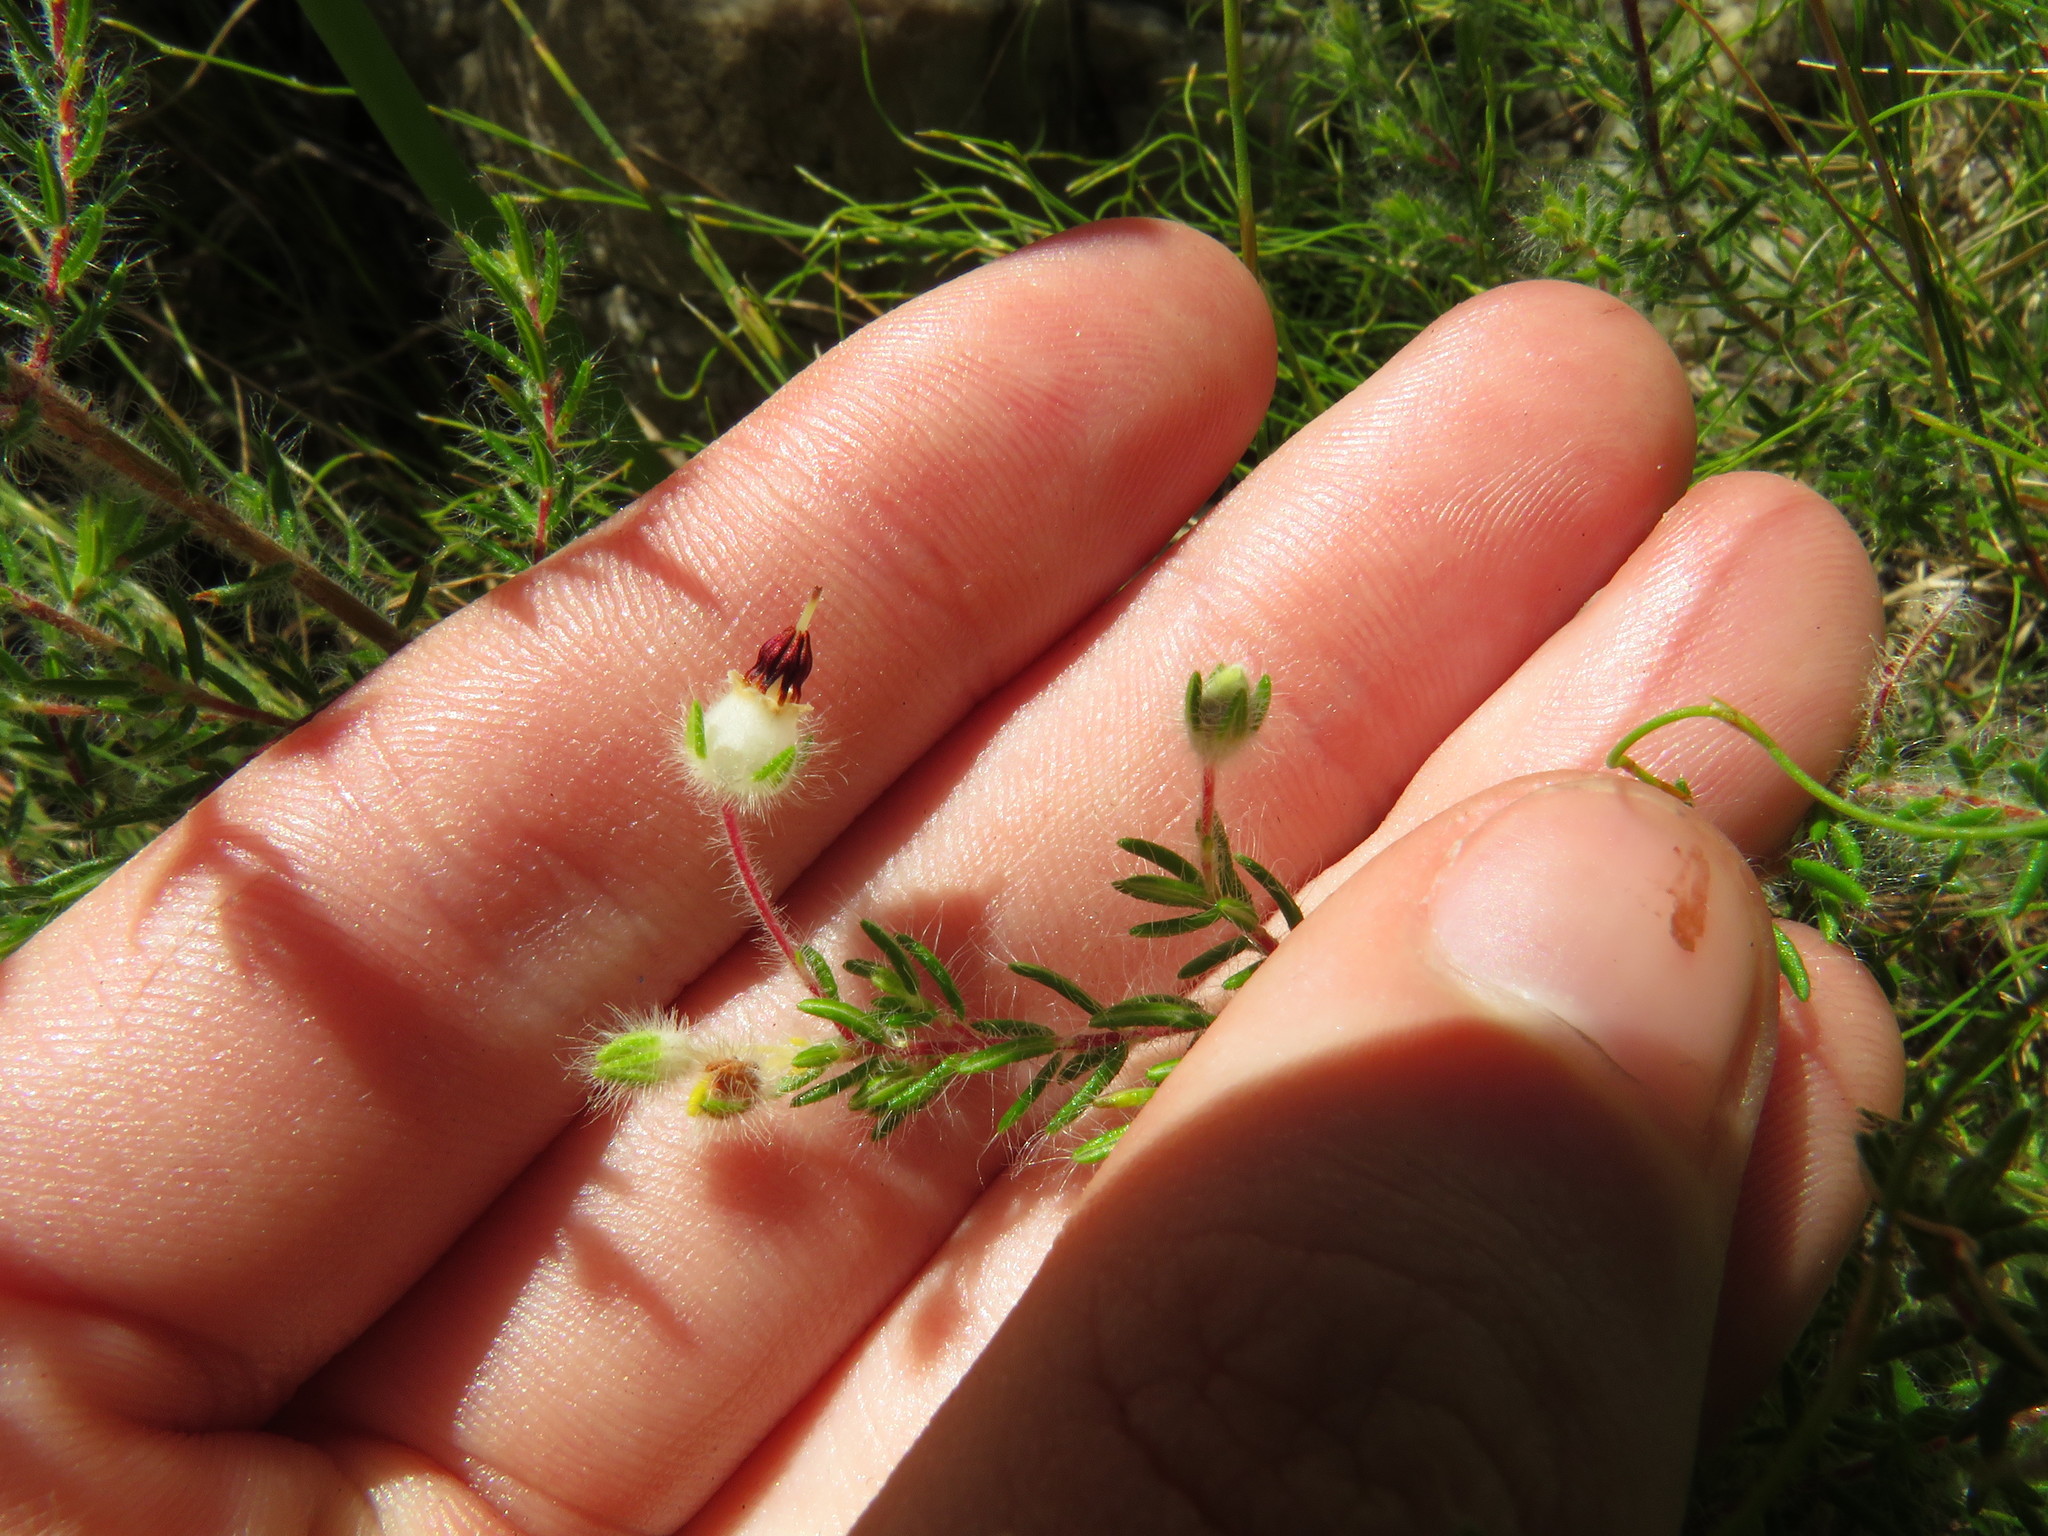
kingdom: Plantae
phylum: Tracheophyta
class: Magnoliopsida
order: Ericales
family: Ericaceae
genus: Erica
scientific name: Erica villosa
